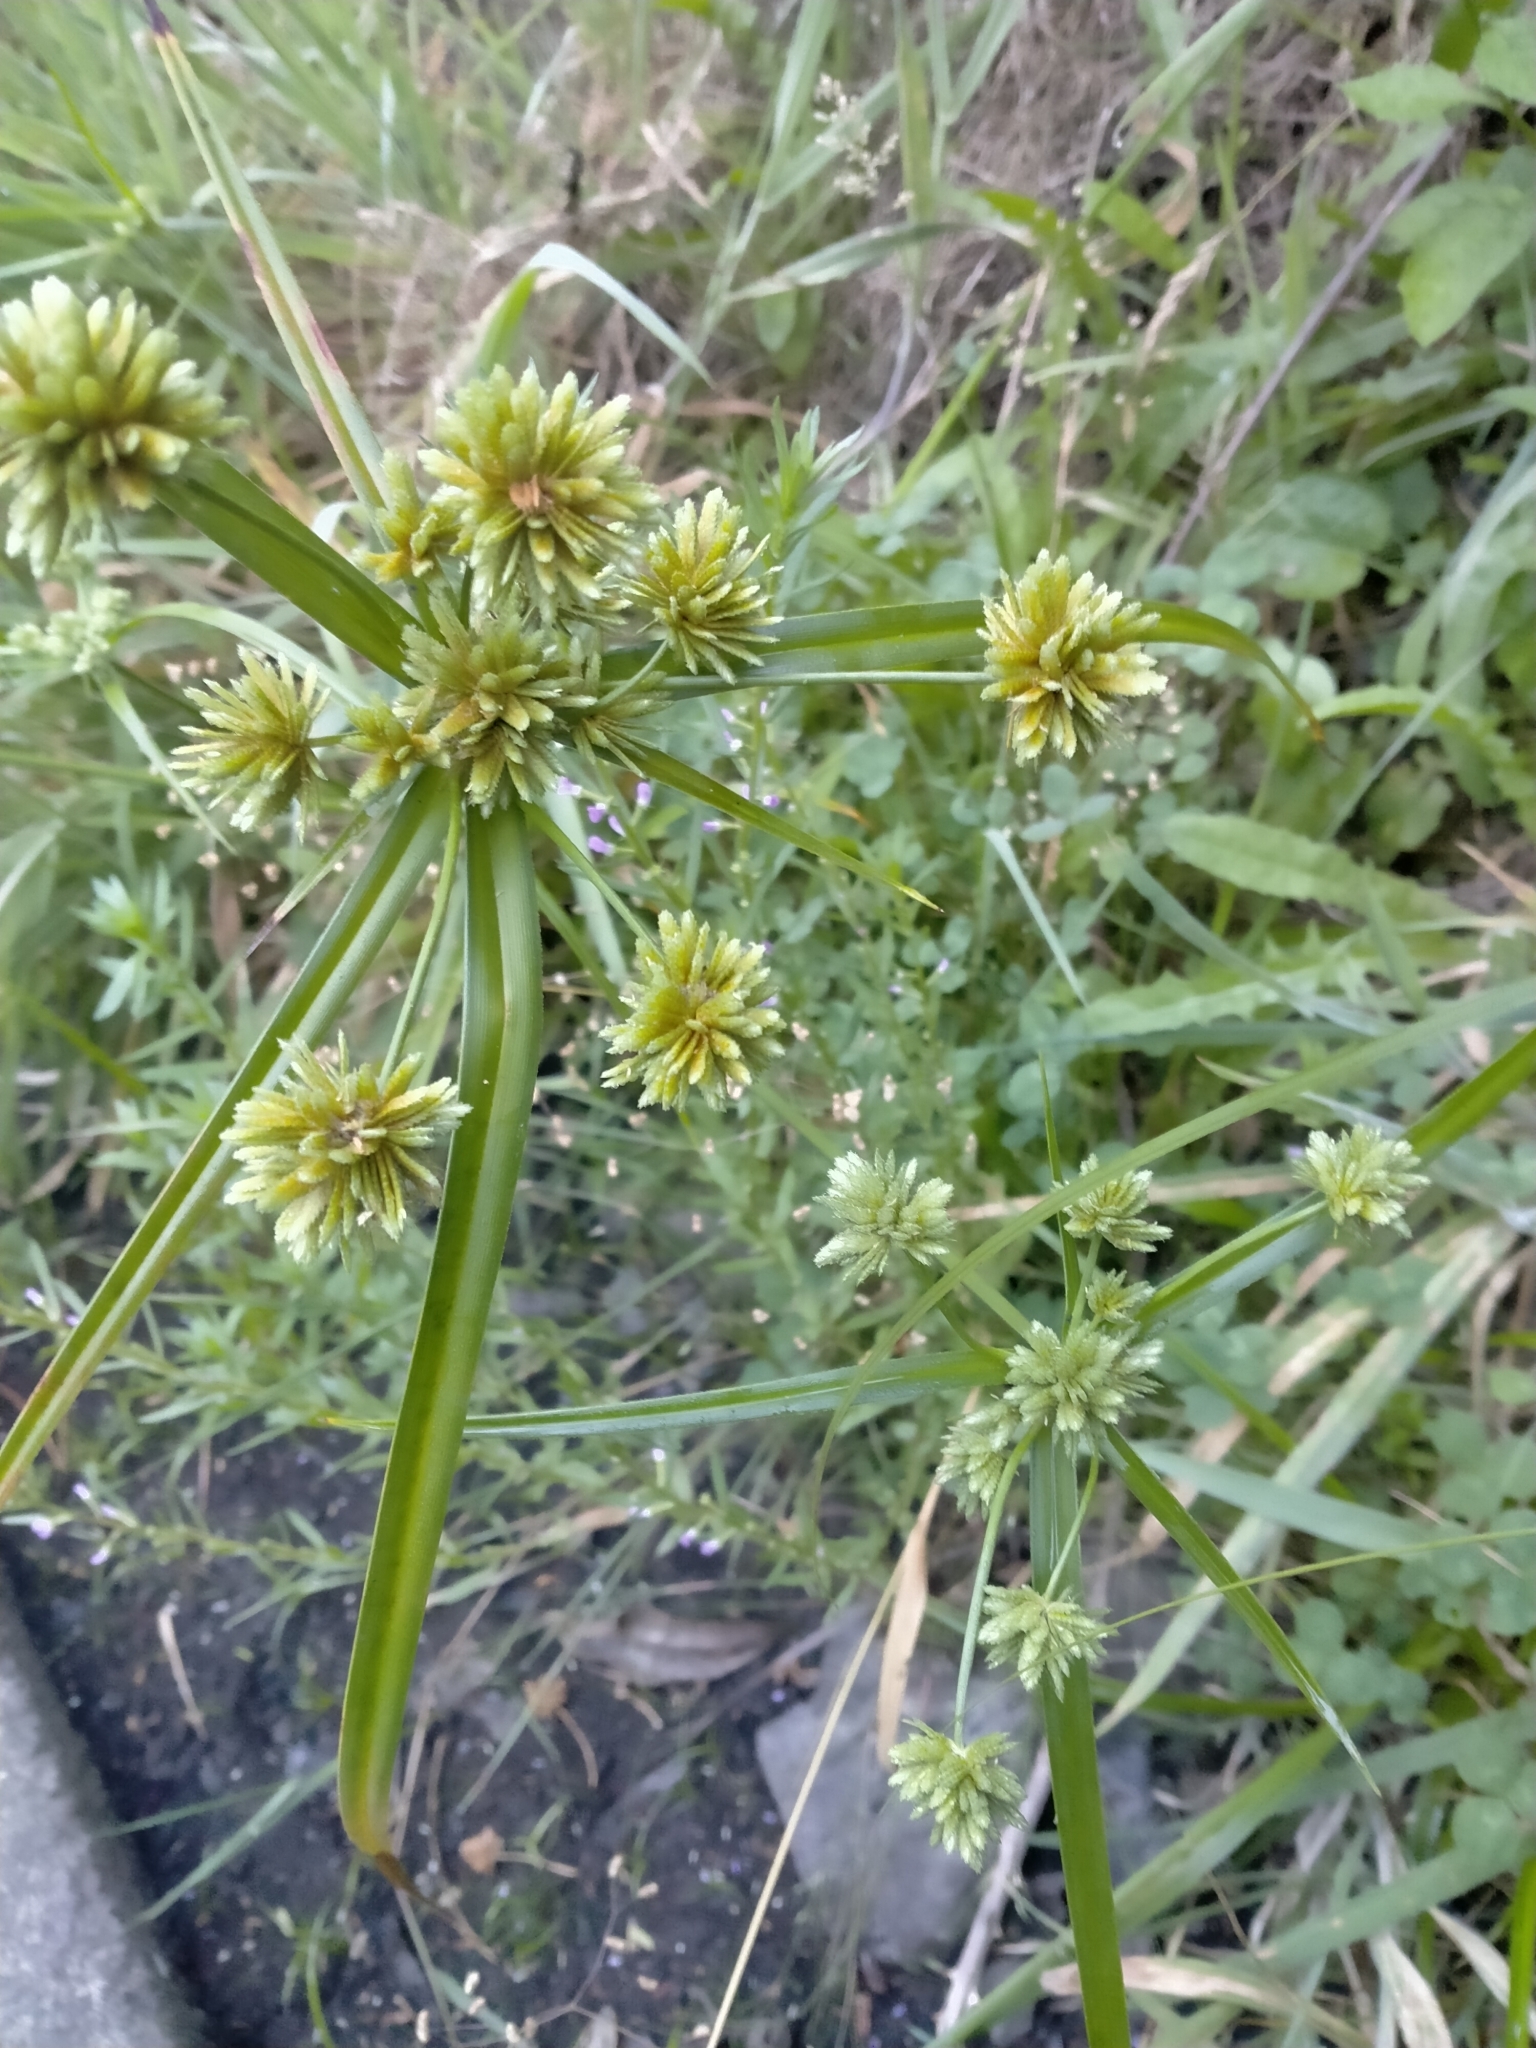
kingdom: Plantae
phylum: Tracheophyta
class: Liliopsida
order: Poales
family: Cyperaceae
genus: Cyperus
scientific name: Cyperus eragrostis
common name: Tall flatsedge
